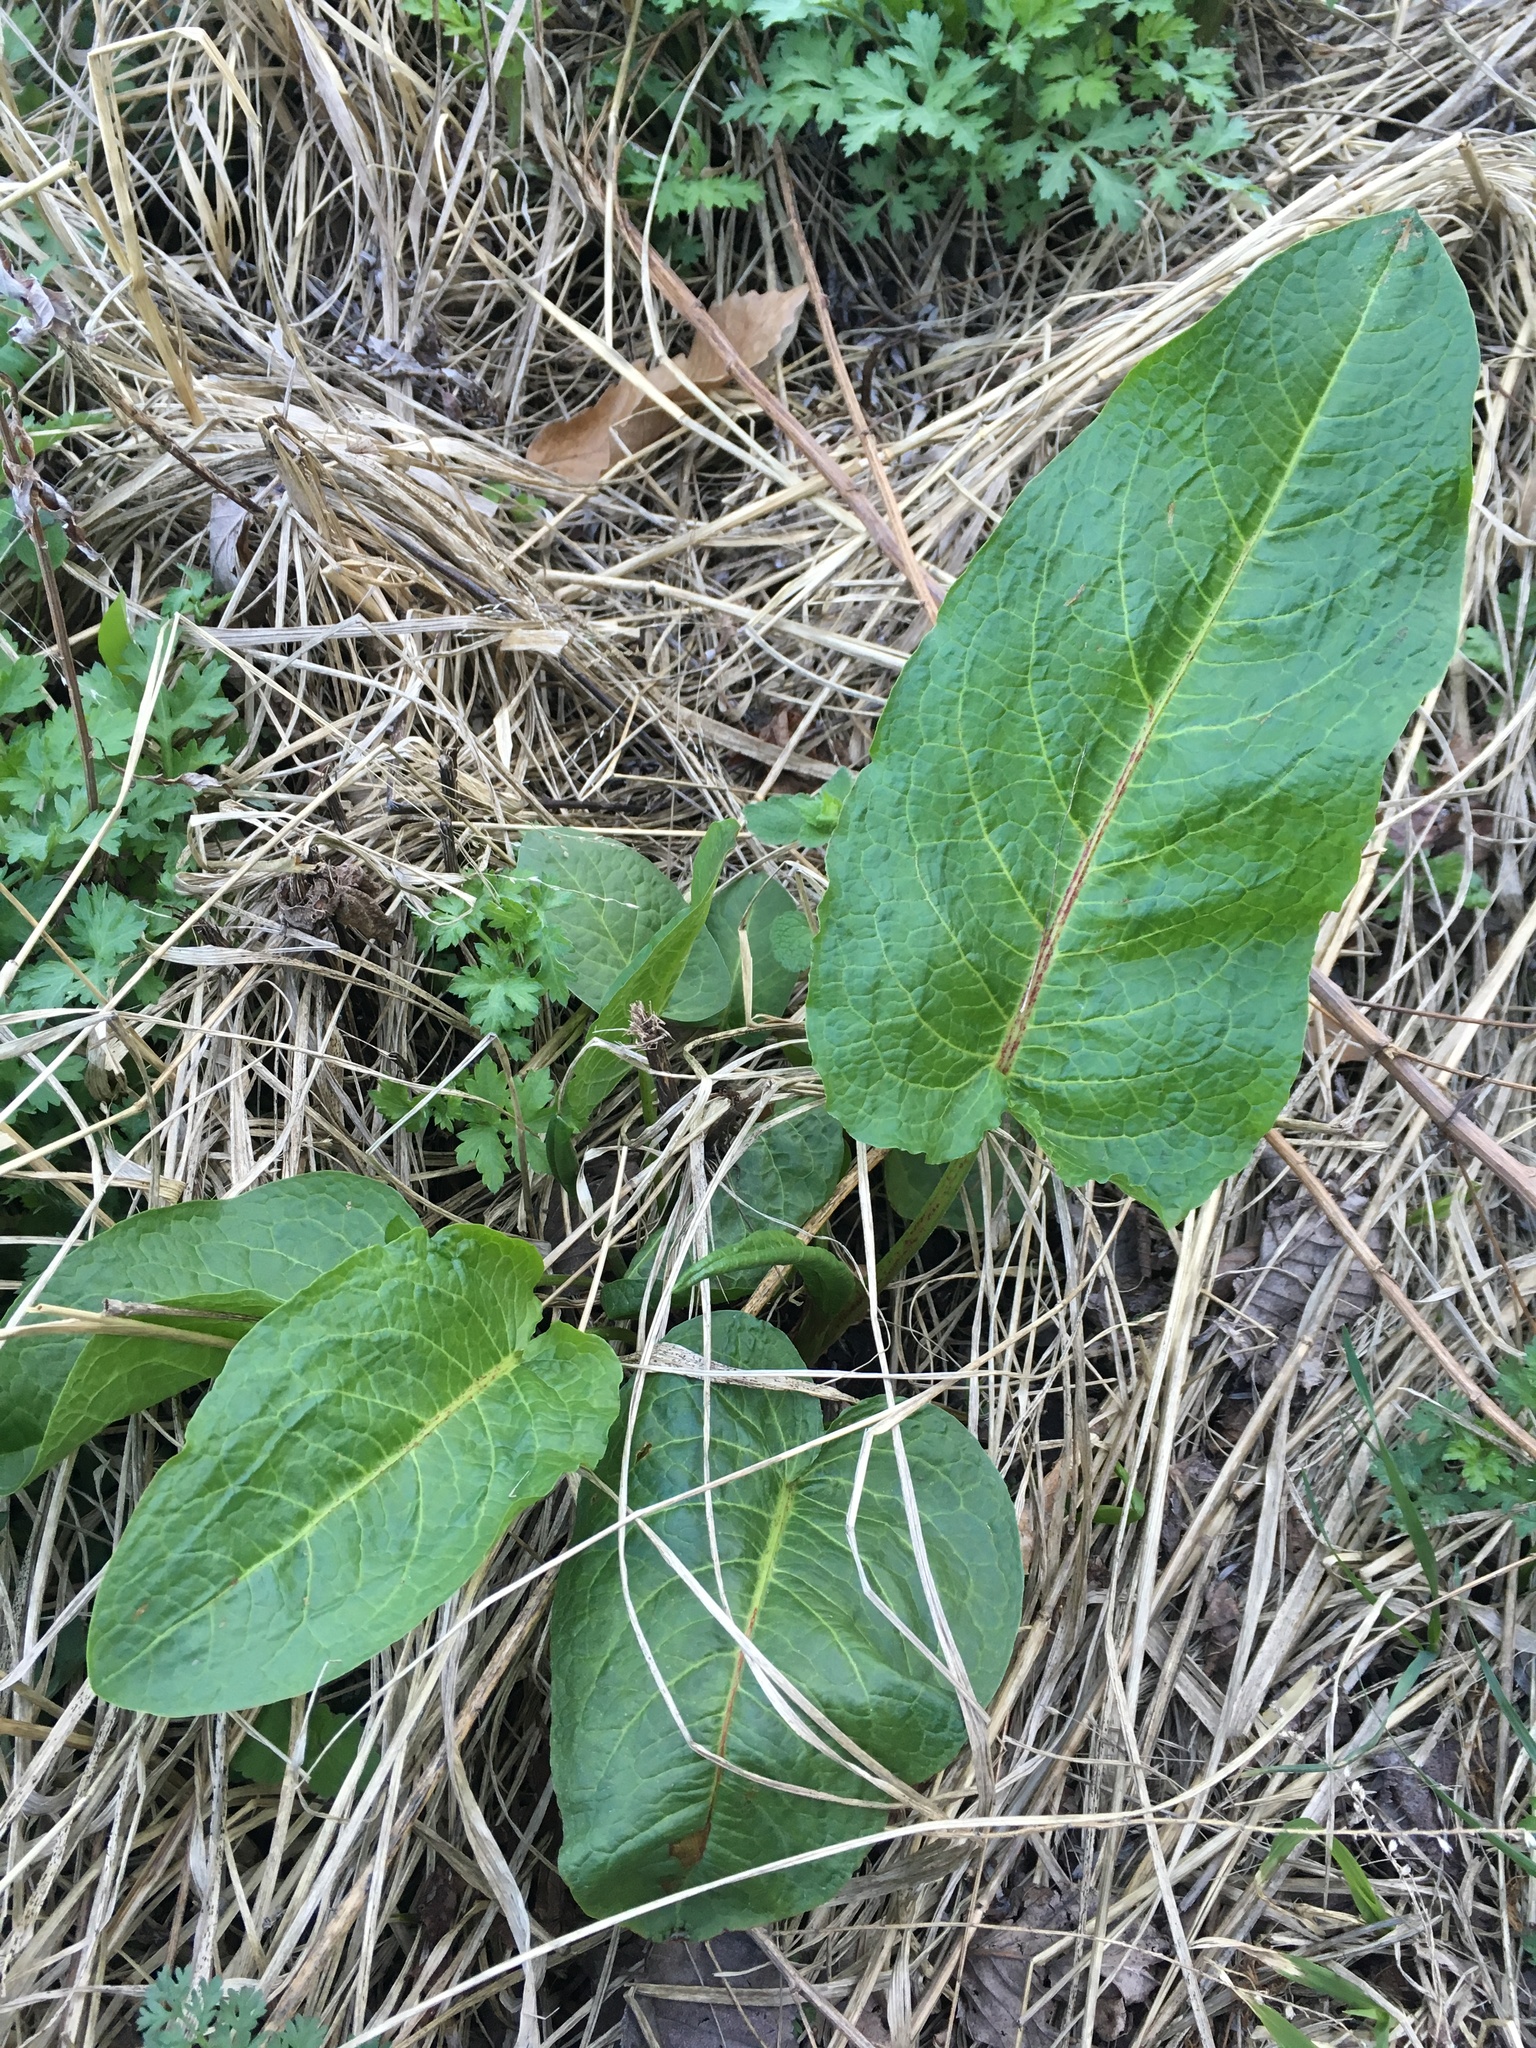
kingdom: Plantae
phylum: Tracheophyta
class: Magnoliopsida
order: Caryophyllales
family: Polygonaceae
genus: Rumex
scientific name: Rumex obtusifolius
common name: Bitter dock
